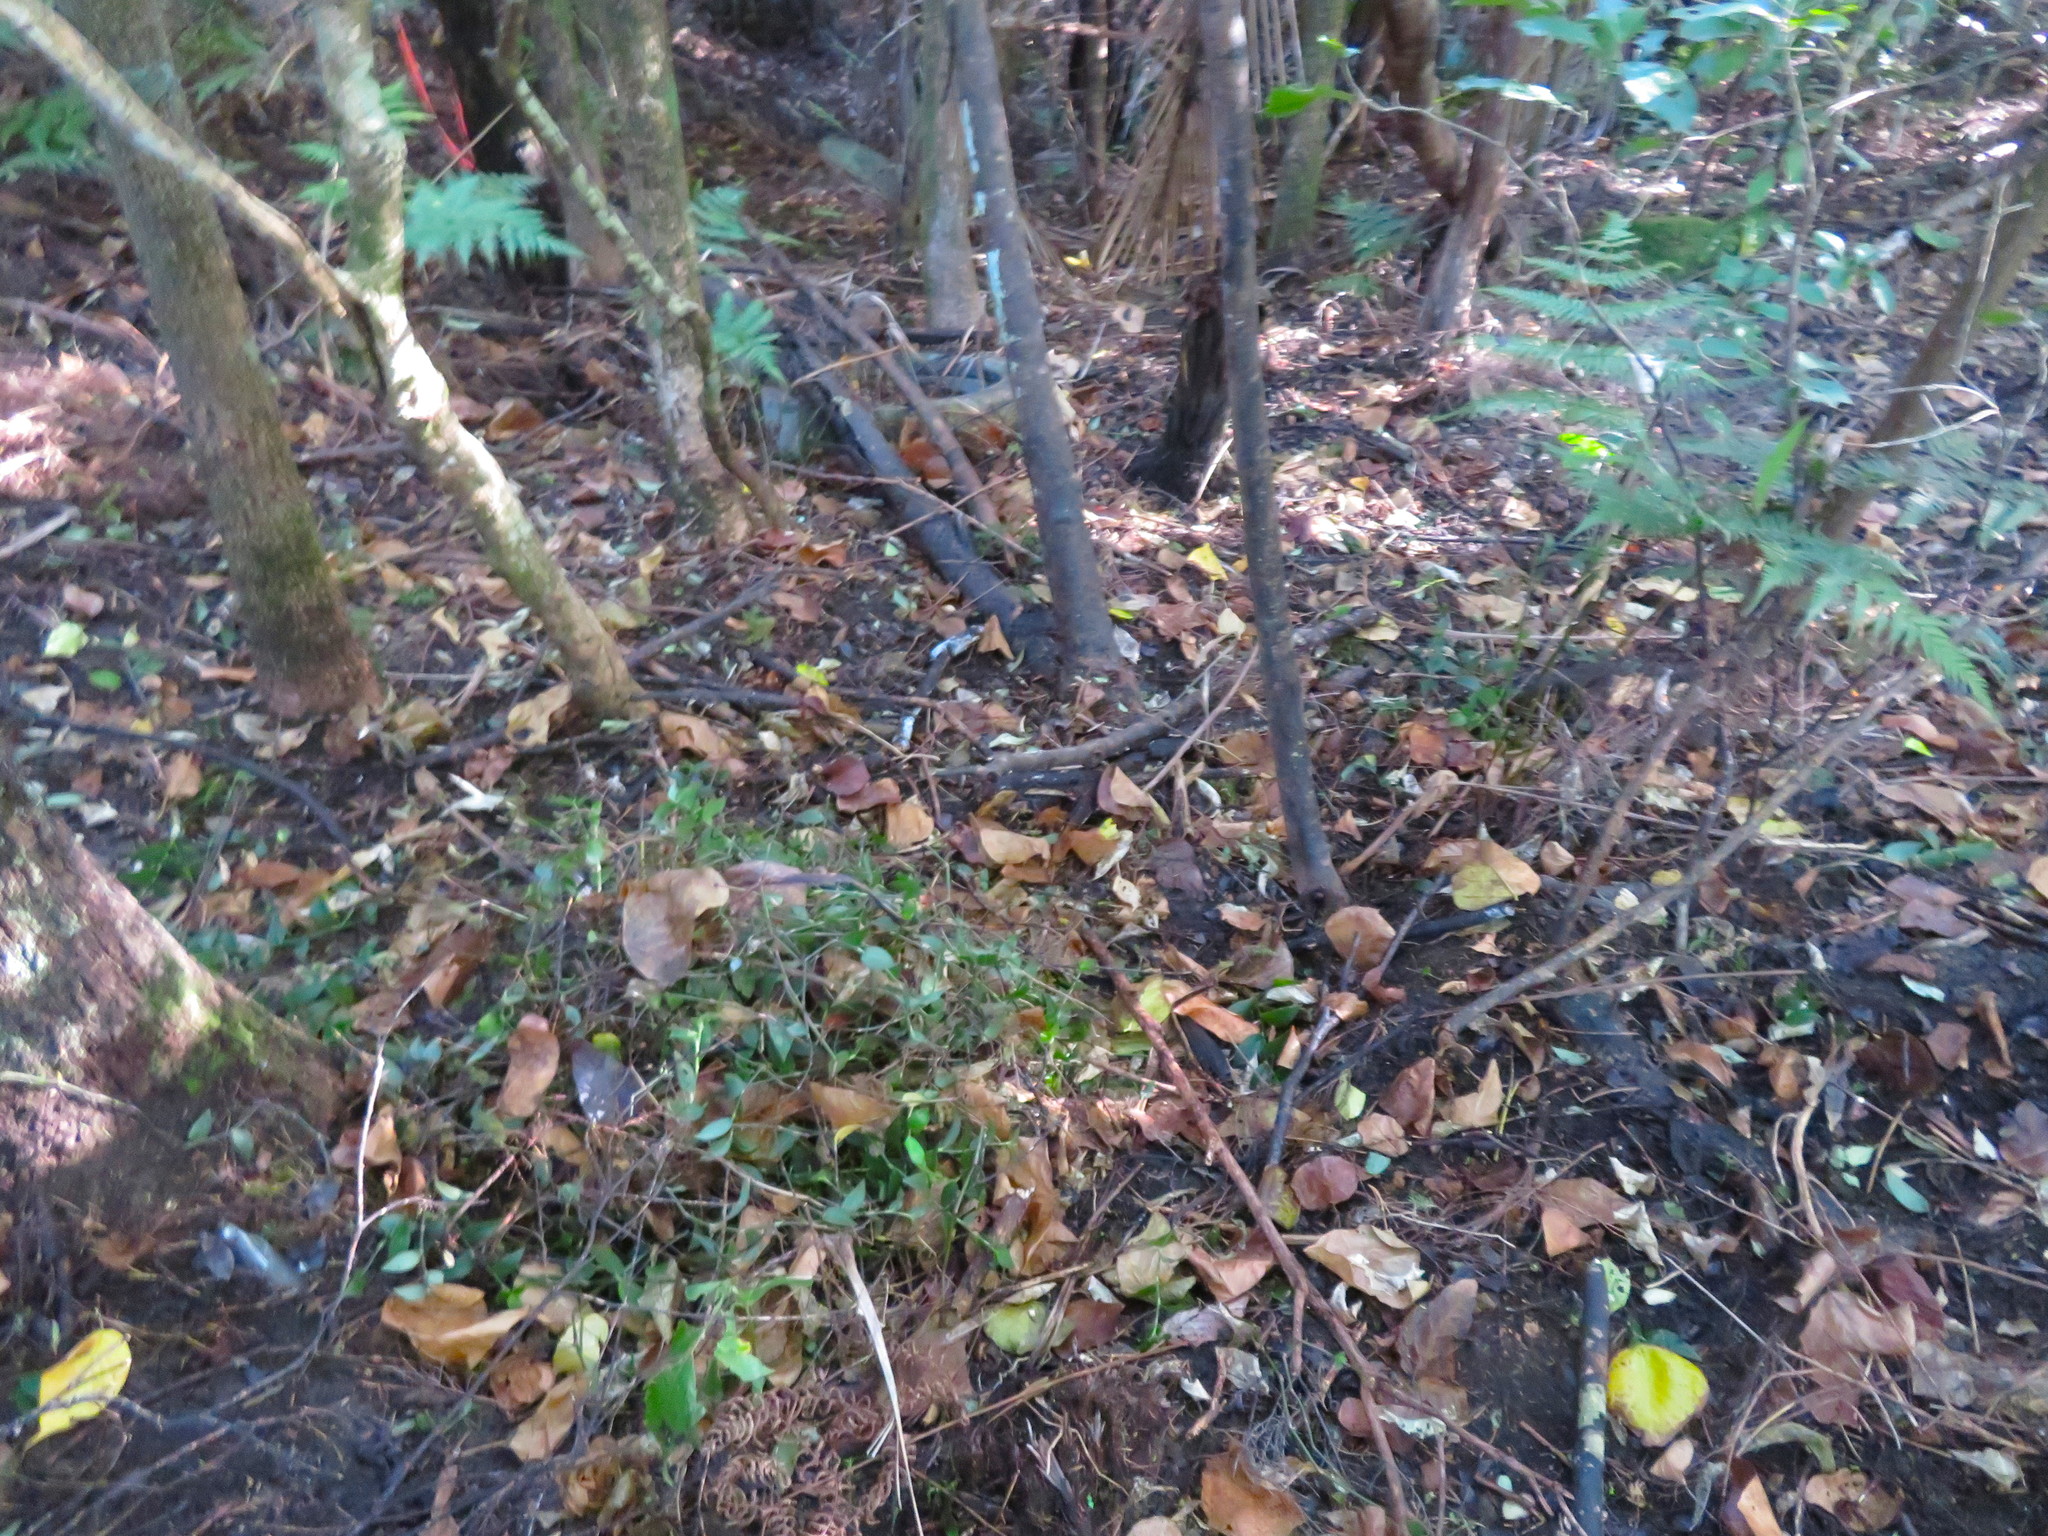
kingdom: Plantae
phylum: Tracheophyta
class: Liliopsida
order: Commelinales
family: Commelinaceae
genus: Tradescantia
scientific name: Tradescantia fluminensis
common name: Wandering-jew
